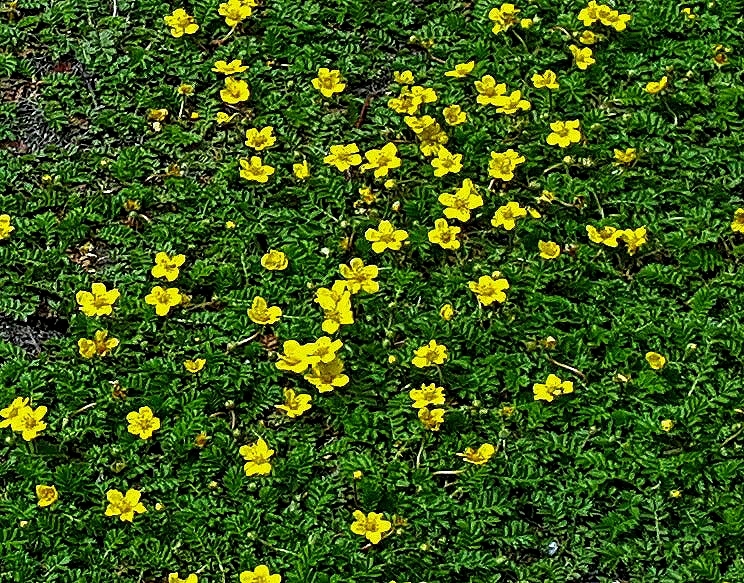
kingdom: Plantae
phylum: Tracheophyta
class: Magnoliopsida
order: Rosales
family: Rosaceae
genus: Argentina
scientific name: Argentina anserina
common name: Common silverweed
